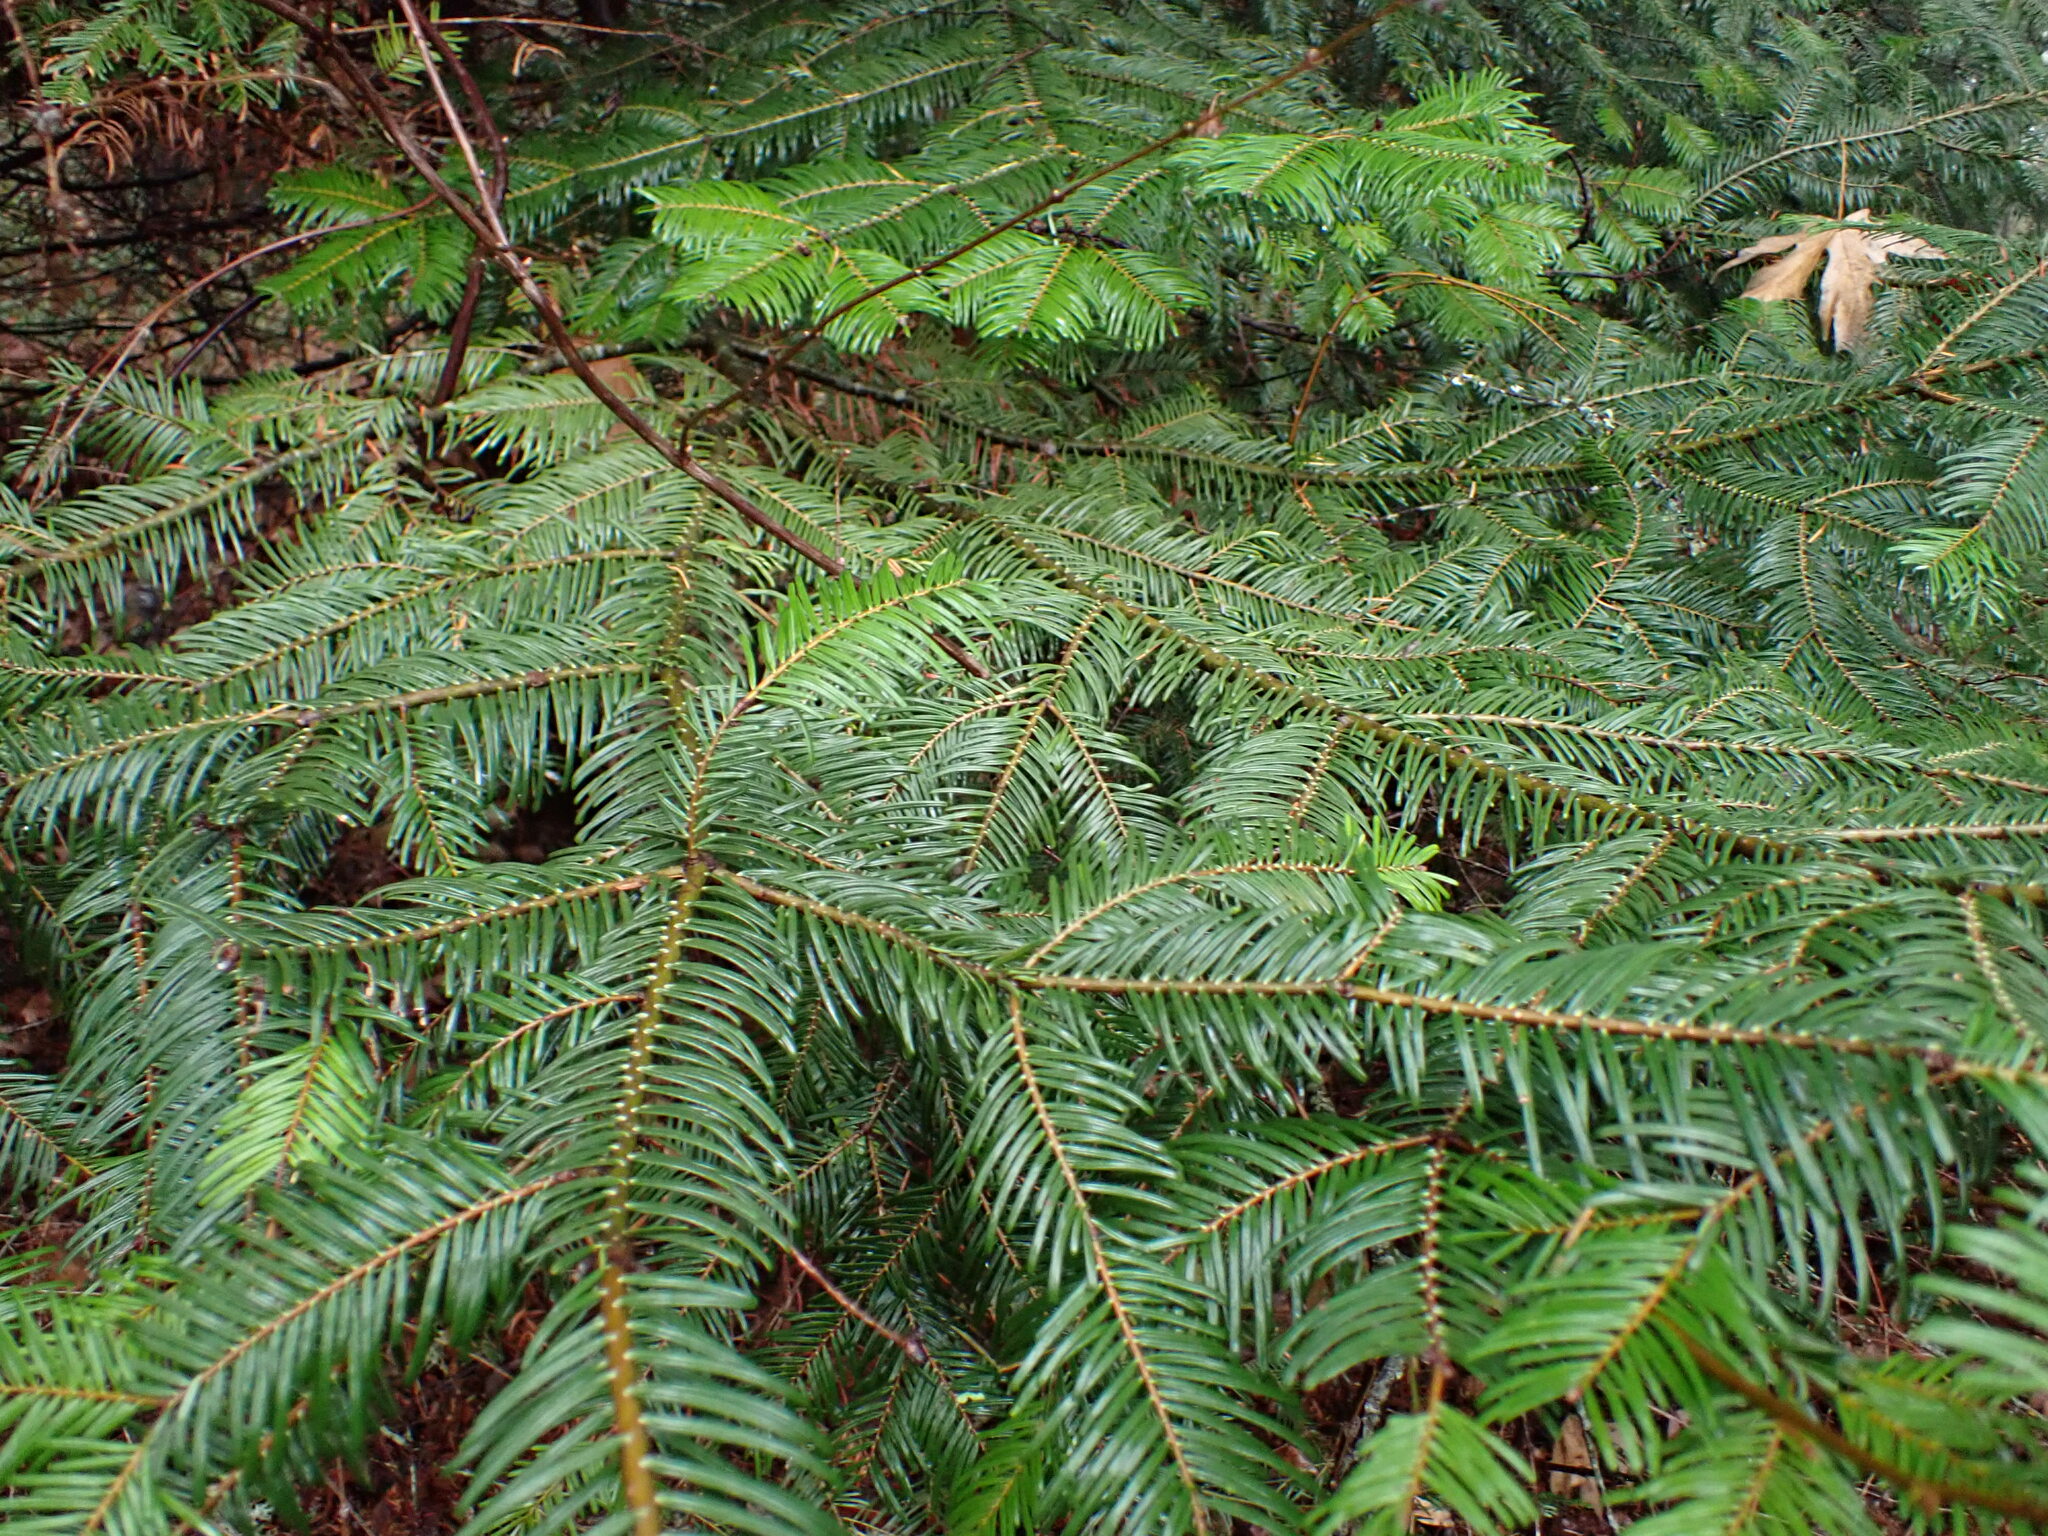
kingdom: Plantae
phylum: Tracheophyta
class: Pinopsida
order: Pinales
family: Pinaceae
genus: Abies
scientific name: Abies grandis
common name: Giant fir
